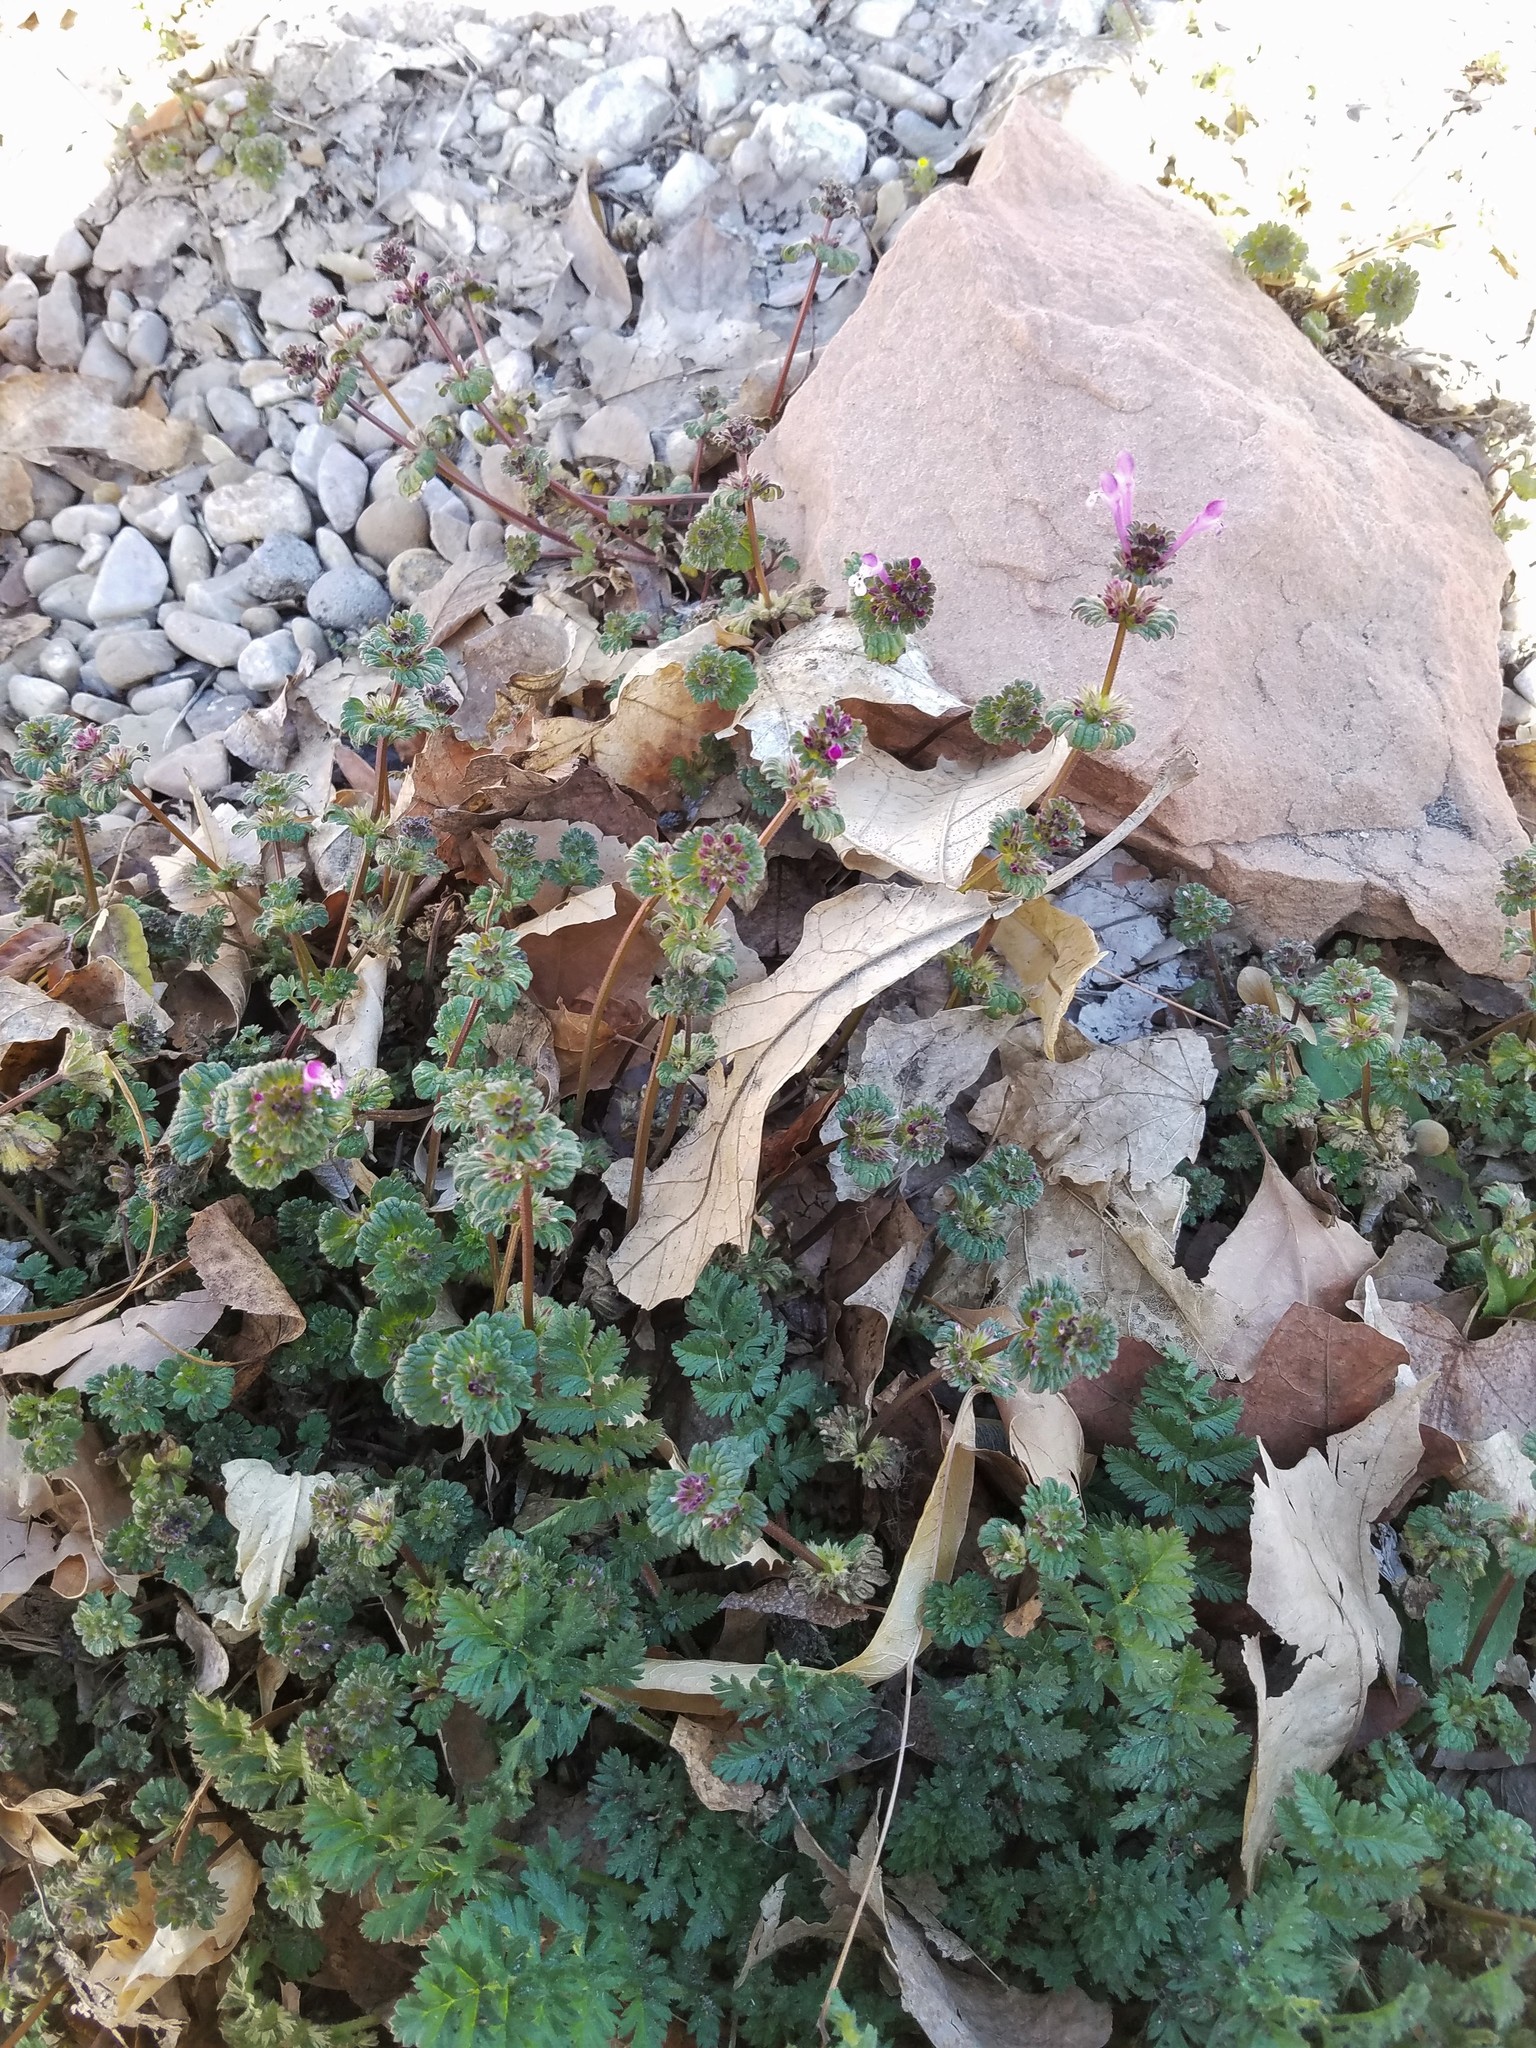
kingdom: Plantae
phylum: Tracheophyta
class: Magnoliopsida
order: Lamiales
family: Lamiaceae
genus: Lamium
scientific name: Lamium amplexicaule
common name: Henbit dead-nettle
